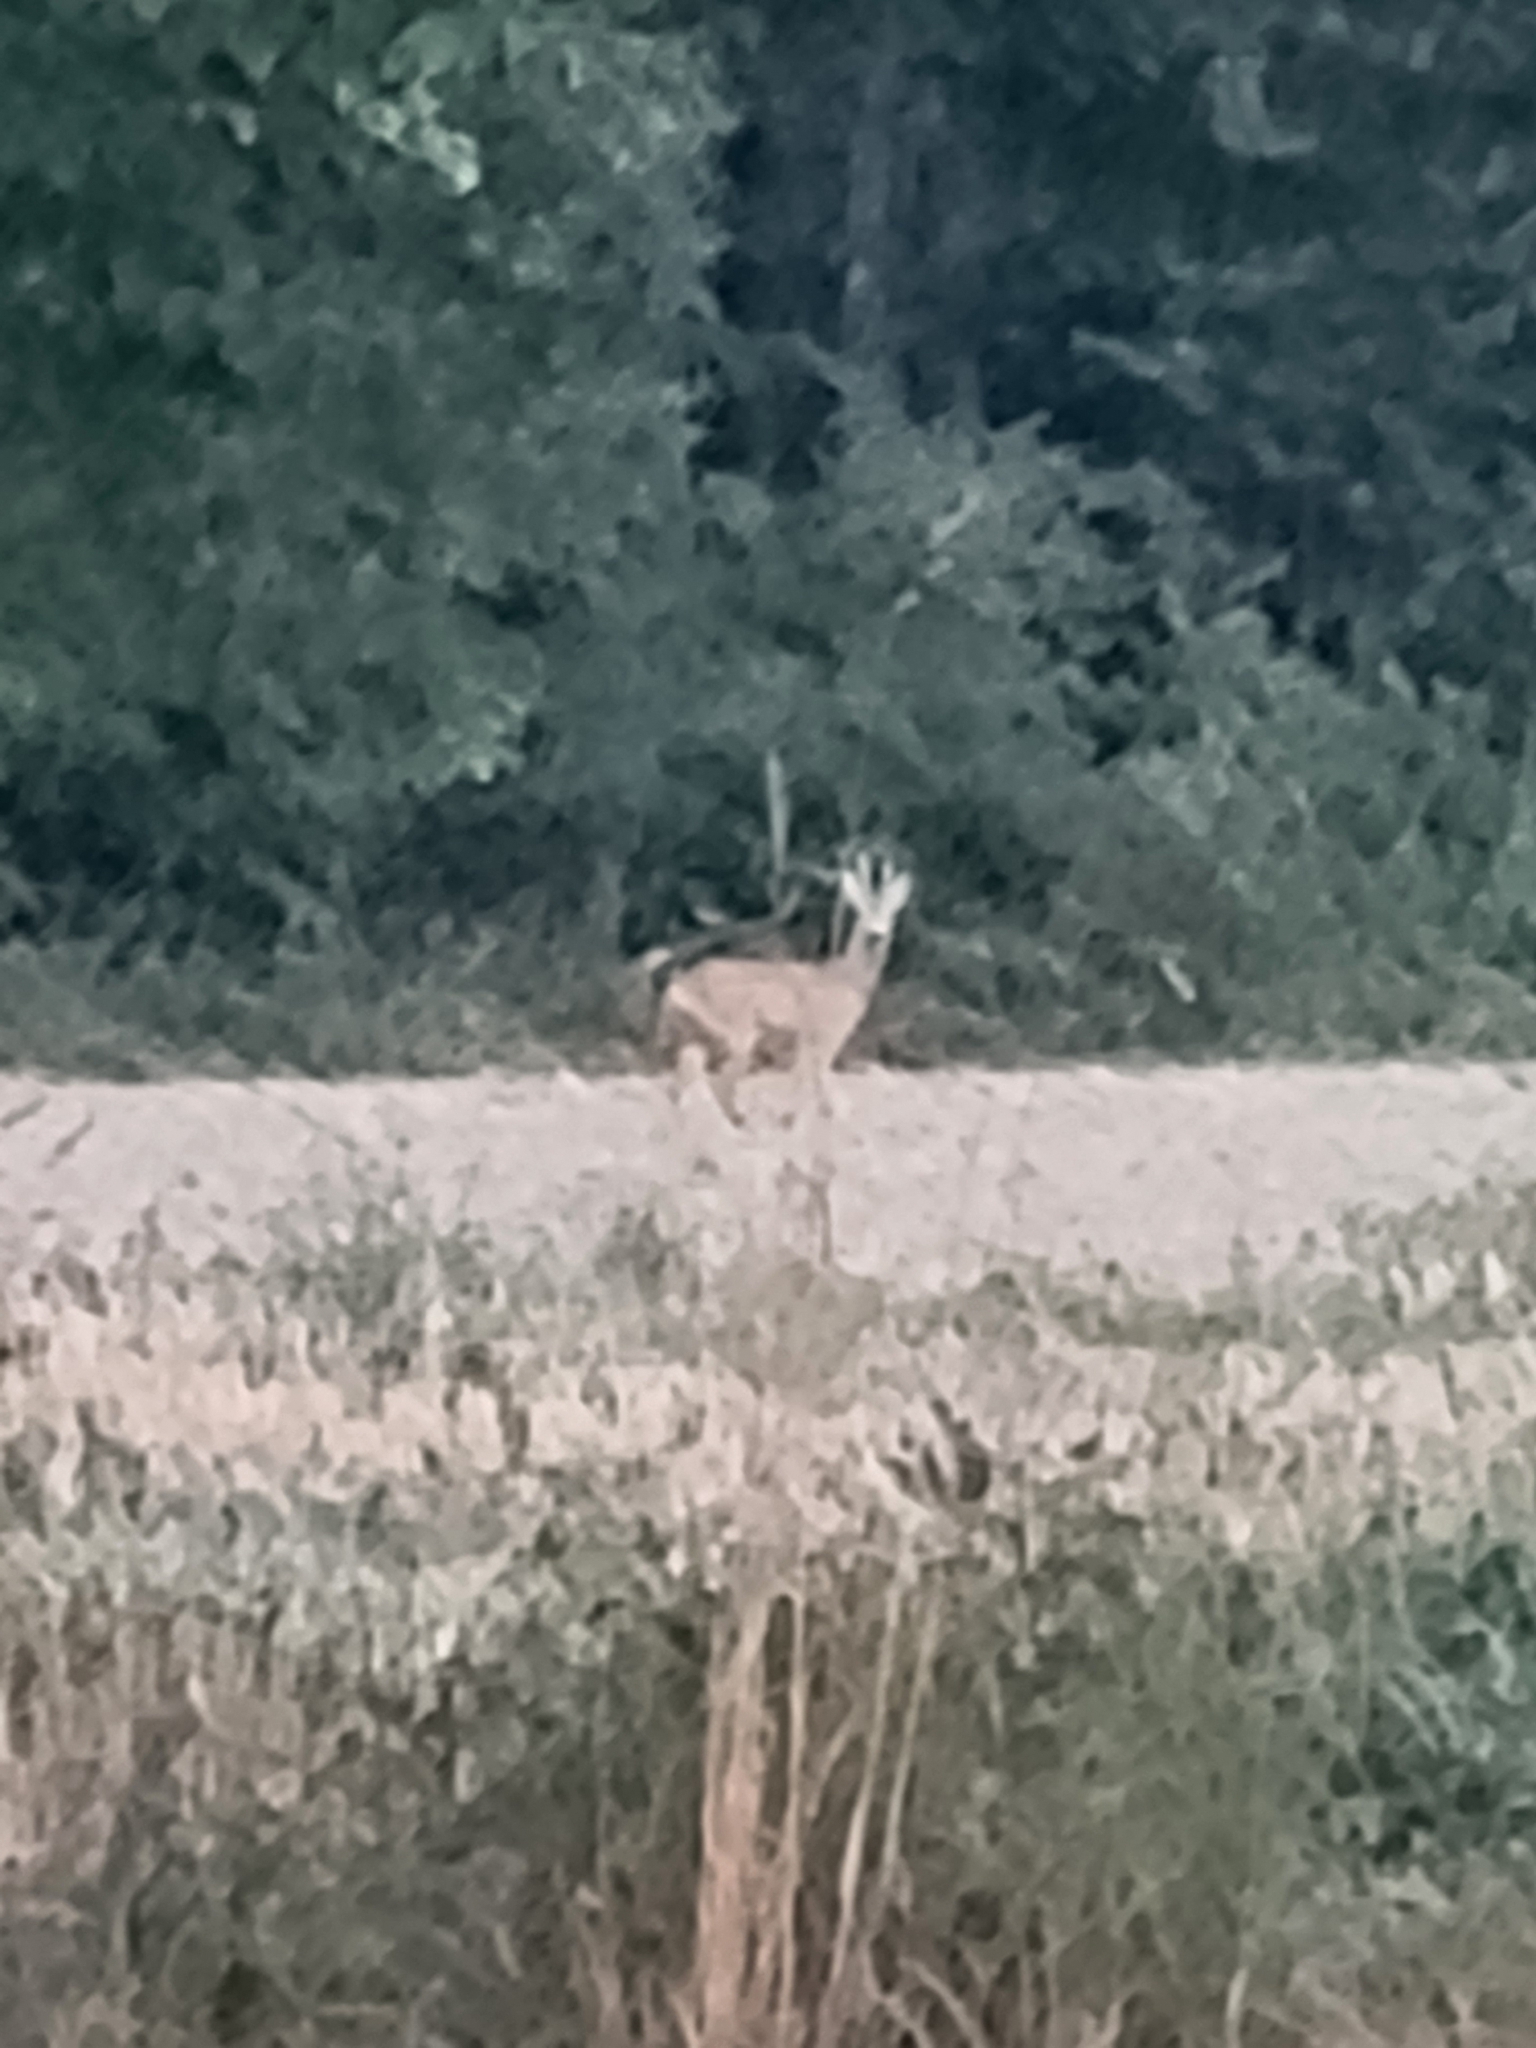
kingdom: Animalia
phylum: Chordata
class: Mammalia
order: Artiodactyla
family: Cervidae
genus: Capreolus
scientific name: Capreolus capreolus
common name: Western roe deer
